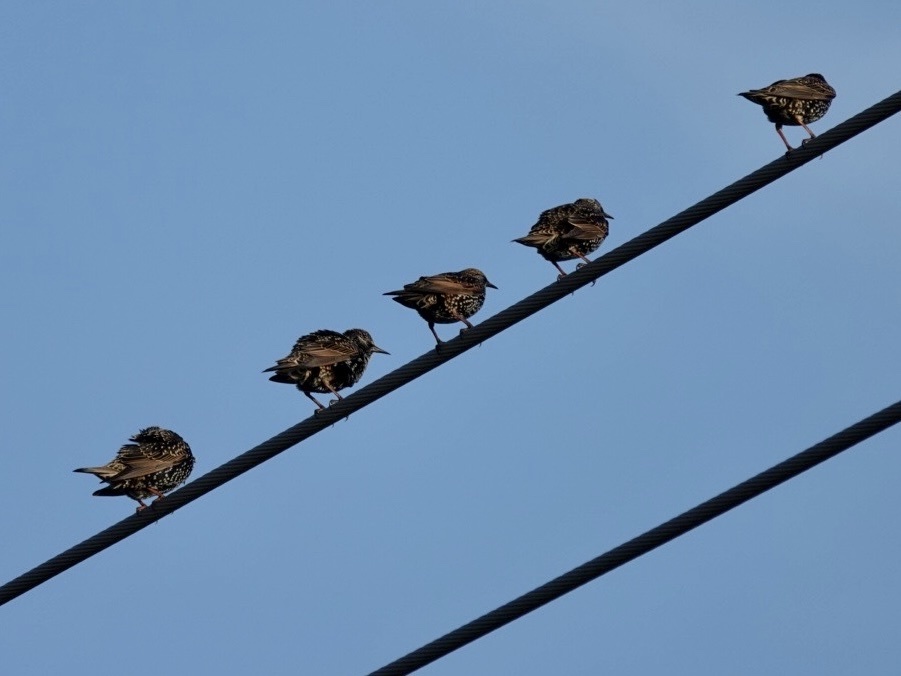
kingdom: Animalia
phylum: Chordata
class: Aves
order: Passeriformes
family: Sturnidae
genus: Sturnus
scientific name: Sturnus vulgaris
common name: Common starling
